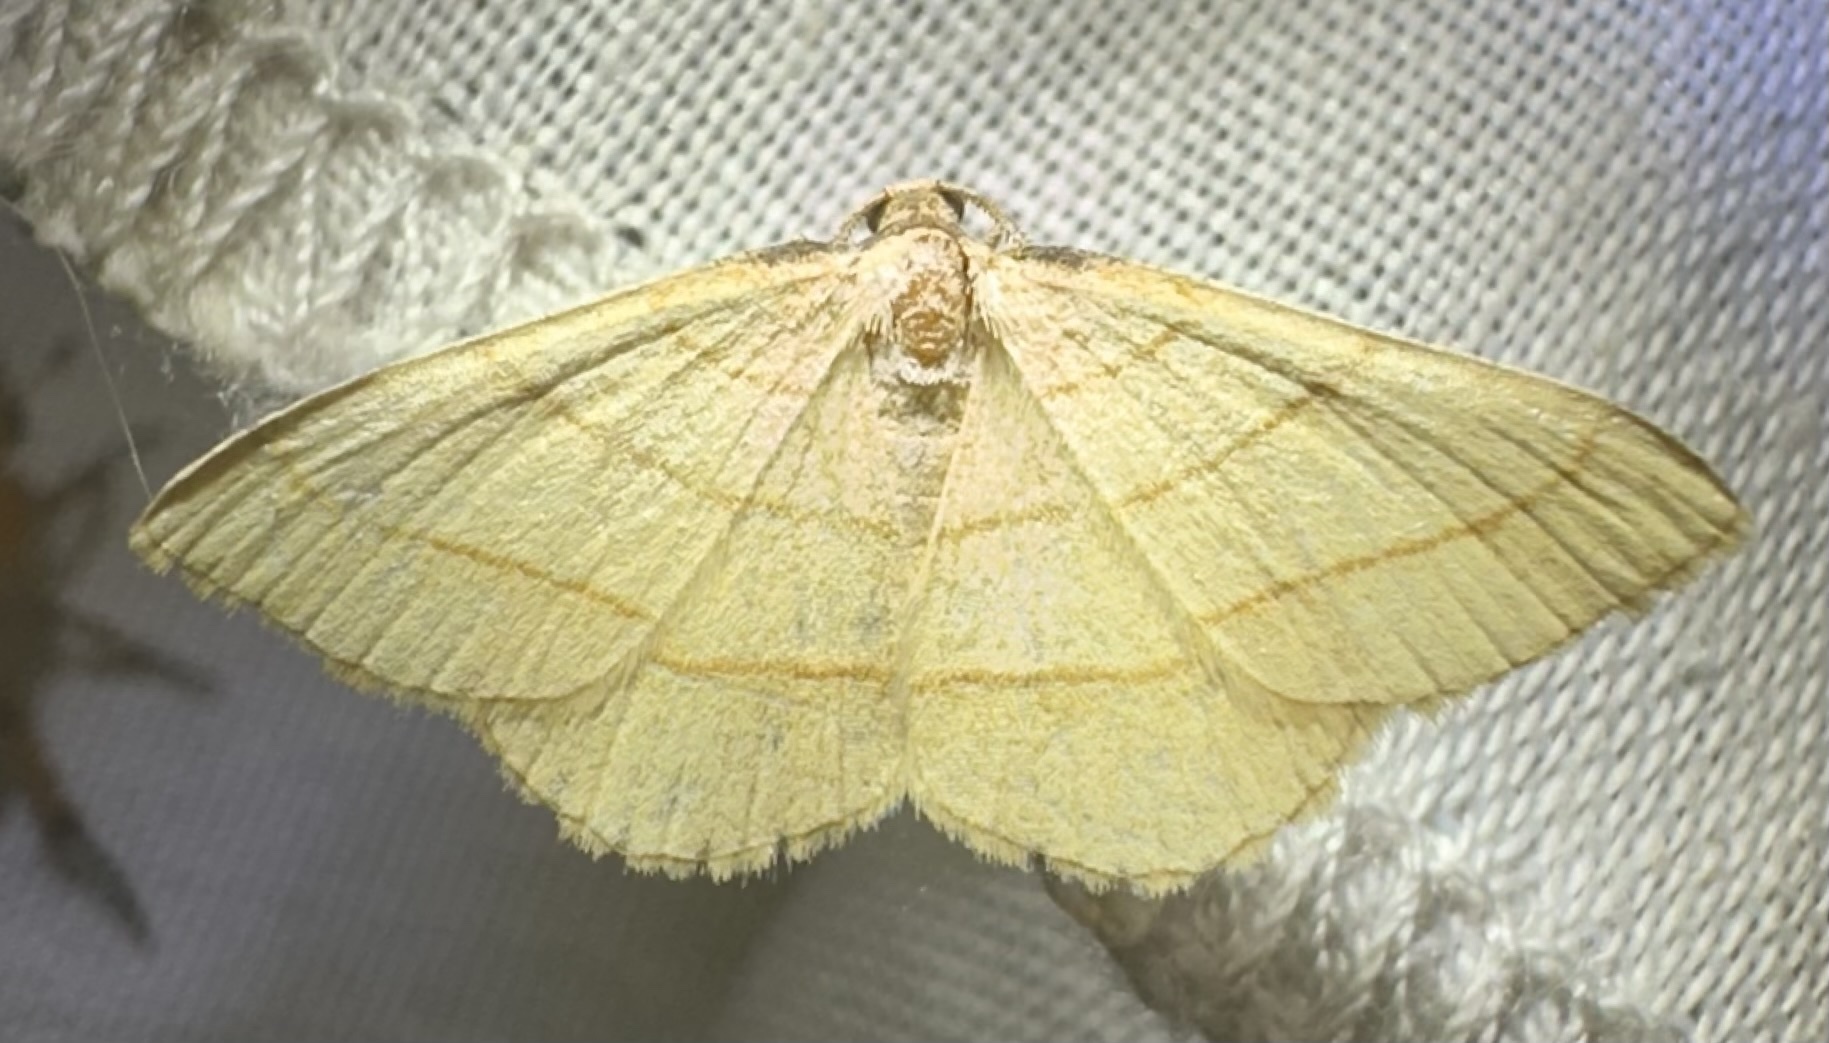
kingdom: Animalia
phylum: Arthropoda
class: Insecta
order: Lepidoptera
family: Geometridae
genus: Plateoplia
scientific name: Plateoplia acrobelia
